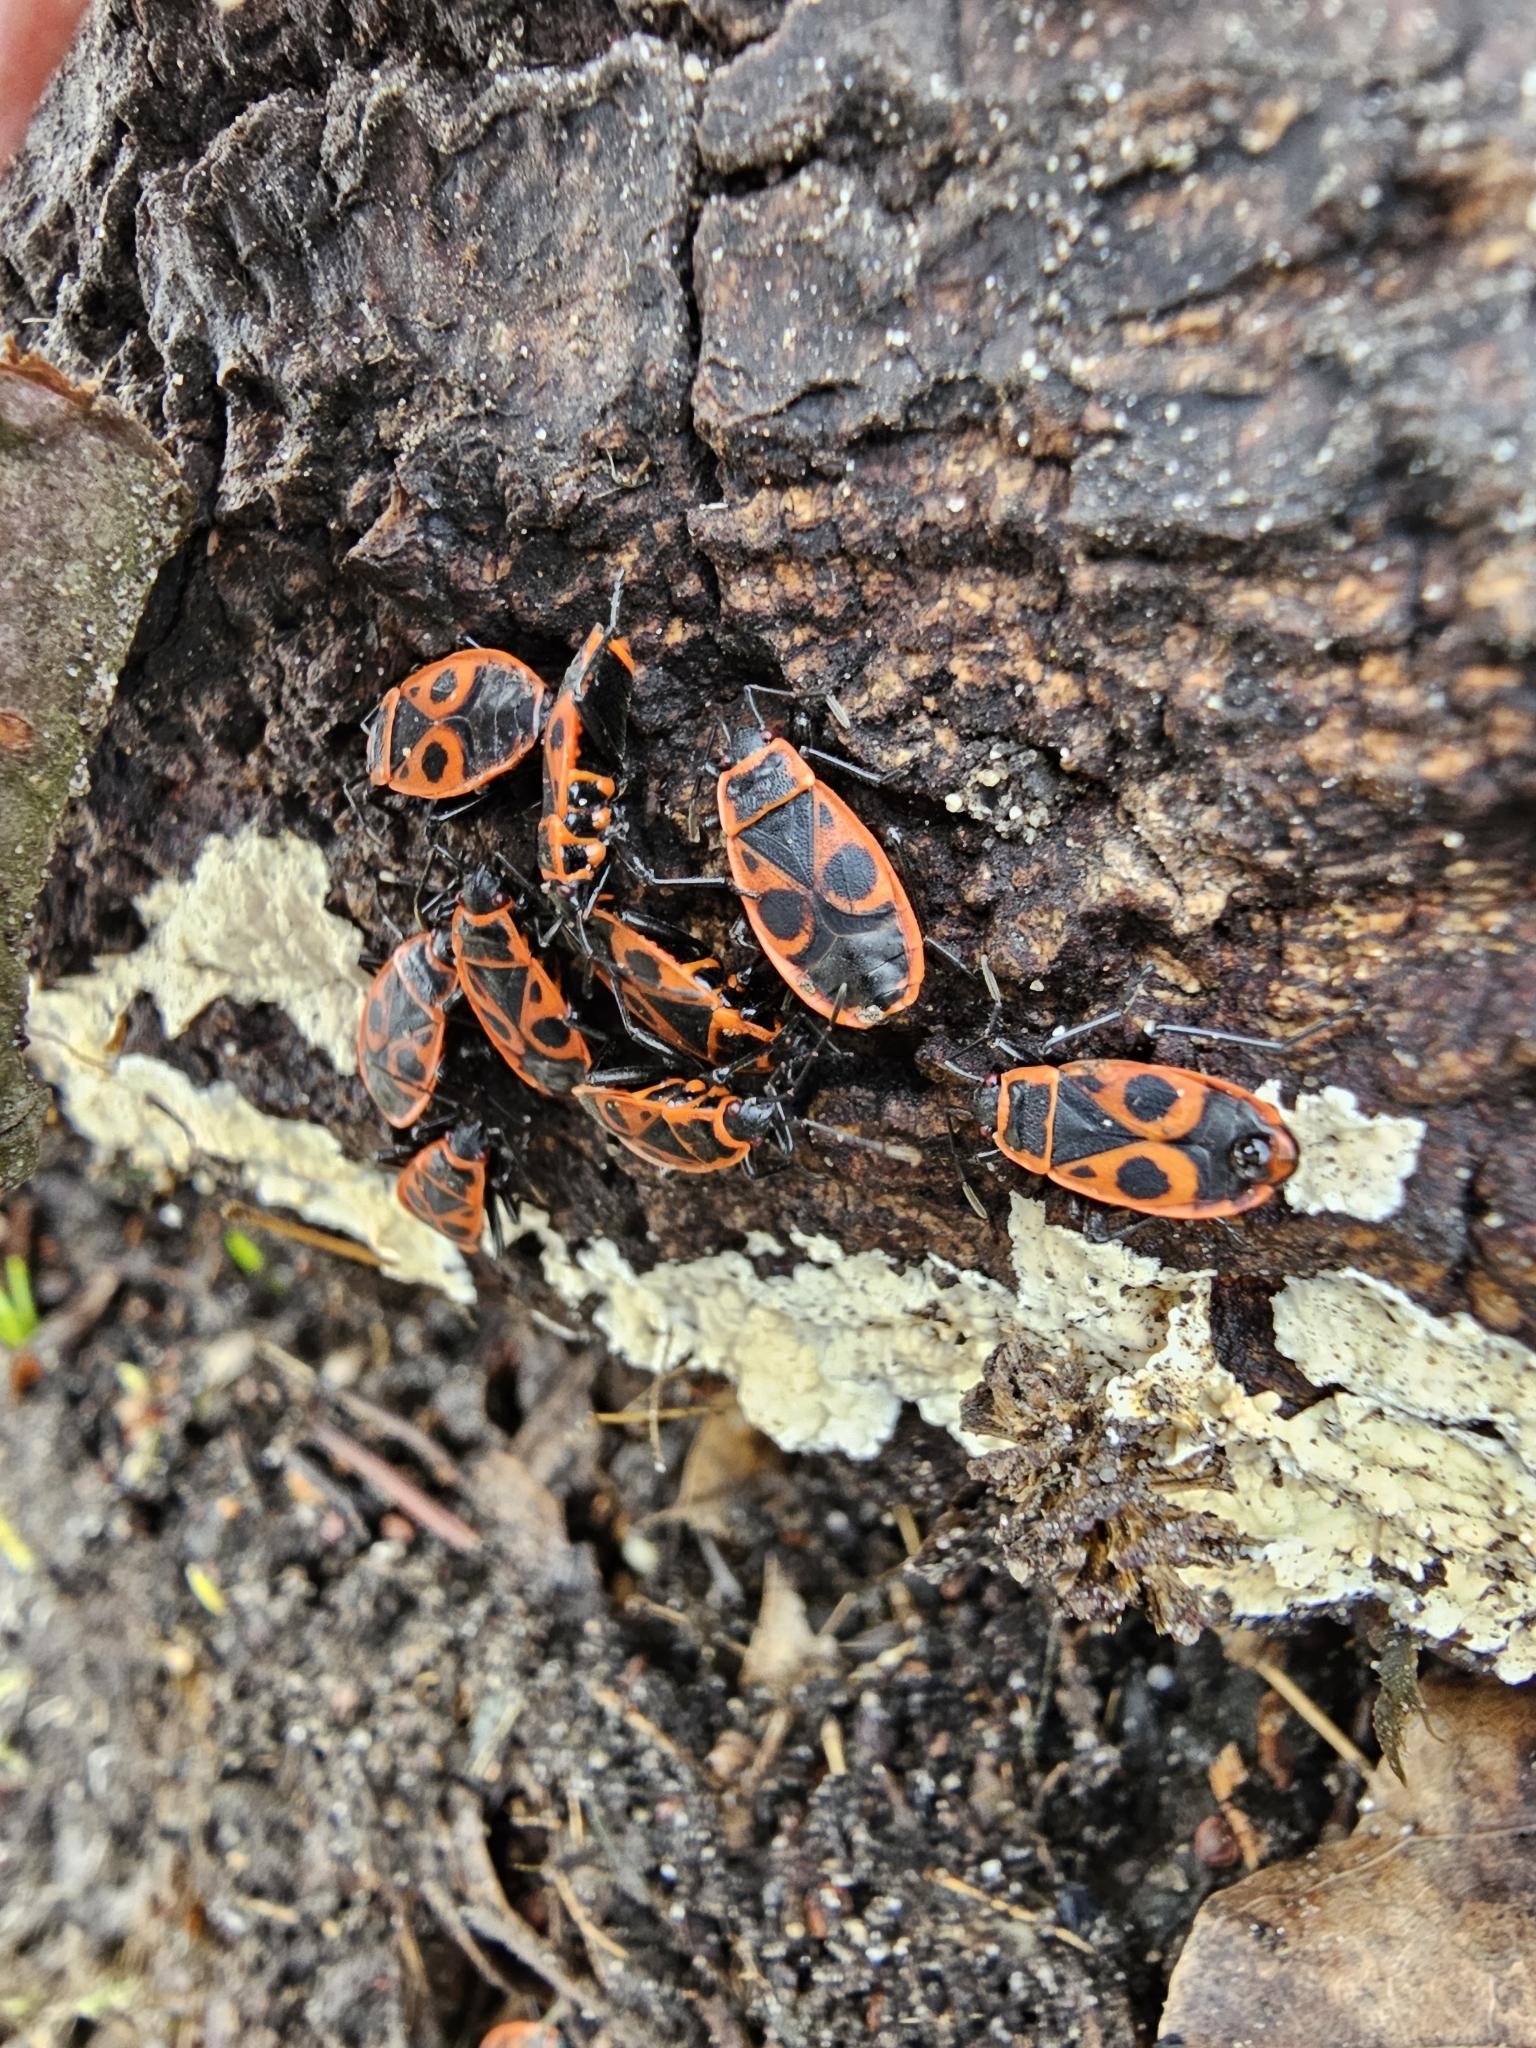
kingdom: Animalia
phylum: Arthropoda
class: Insecta
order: Hemiptera
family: Pyrrhocoridae
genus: Pyrrhocoris
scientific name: Pyrrhocoris apterus
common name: Firebug
